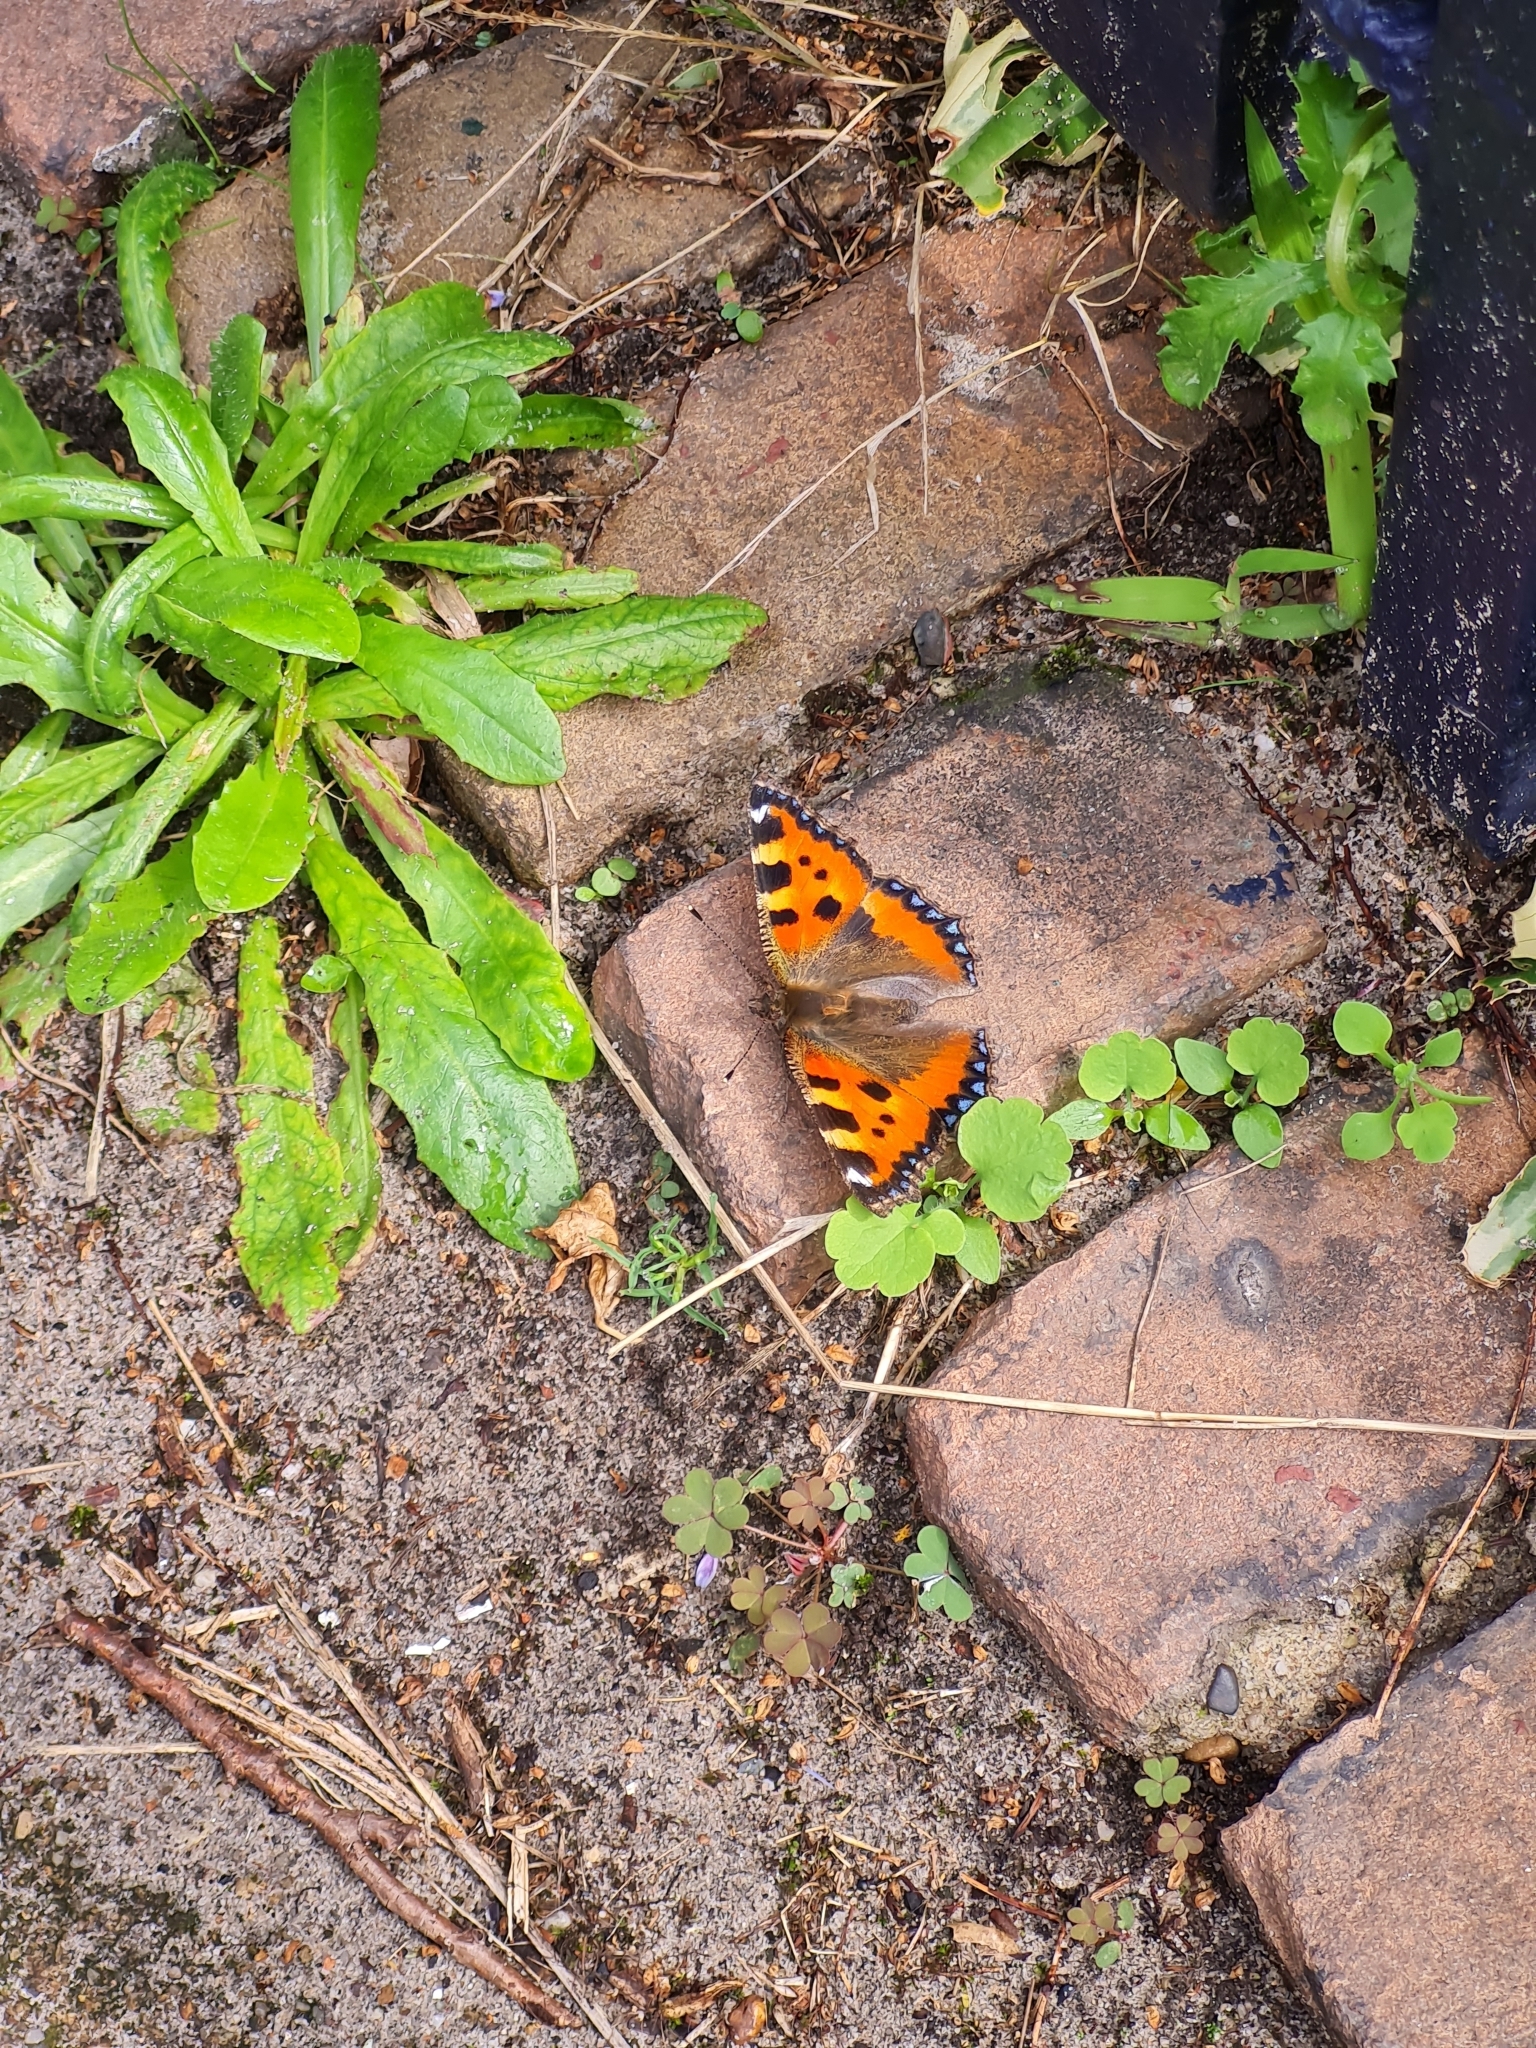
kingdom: Animalia
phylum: Arthropoda
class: Insecta
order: Lepidoptera
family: Nymphalidae
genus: Aglais
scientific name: Aglais urticae
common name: Small tortoiseshell
